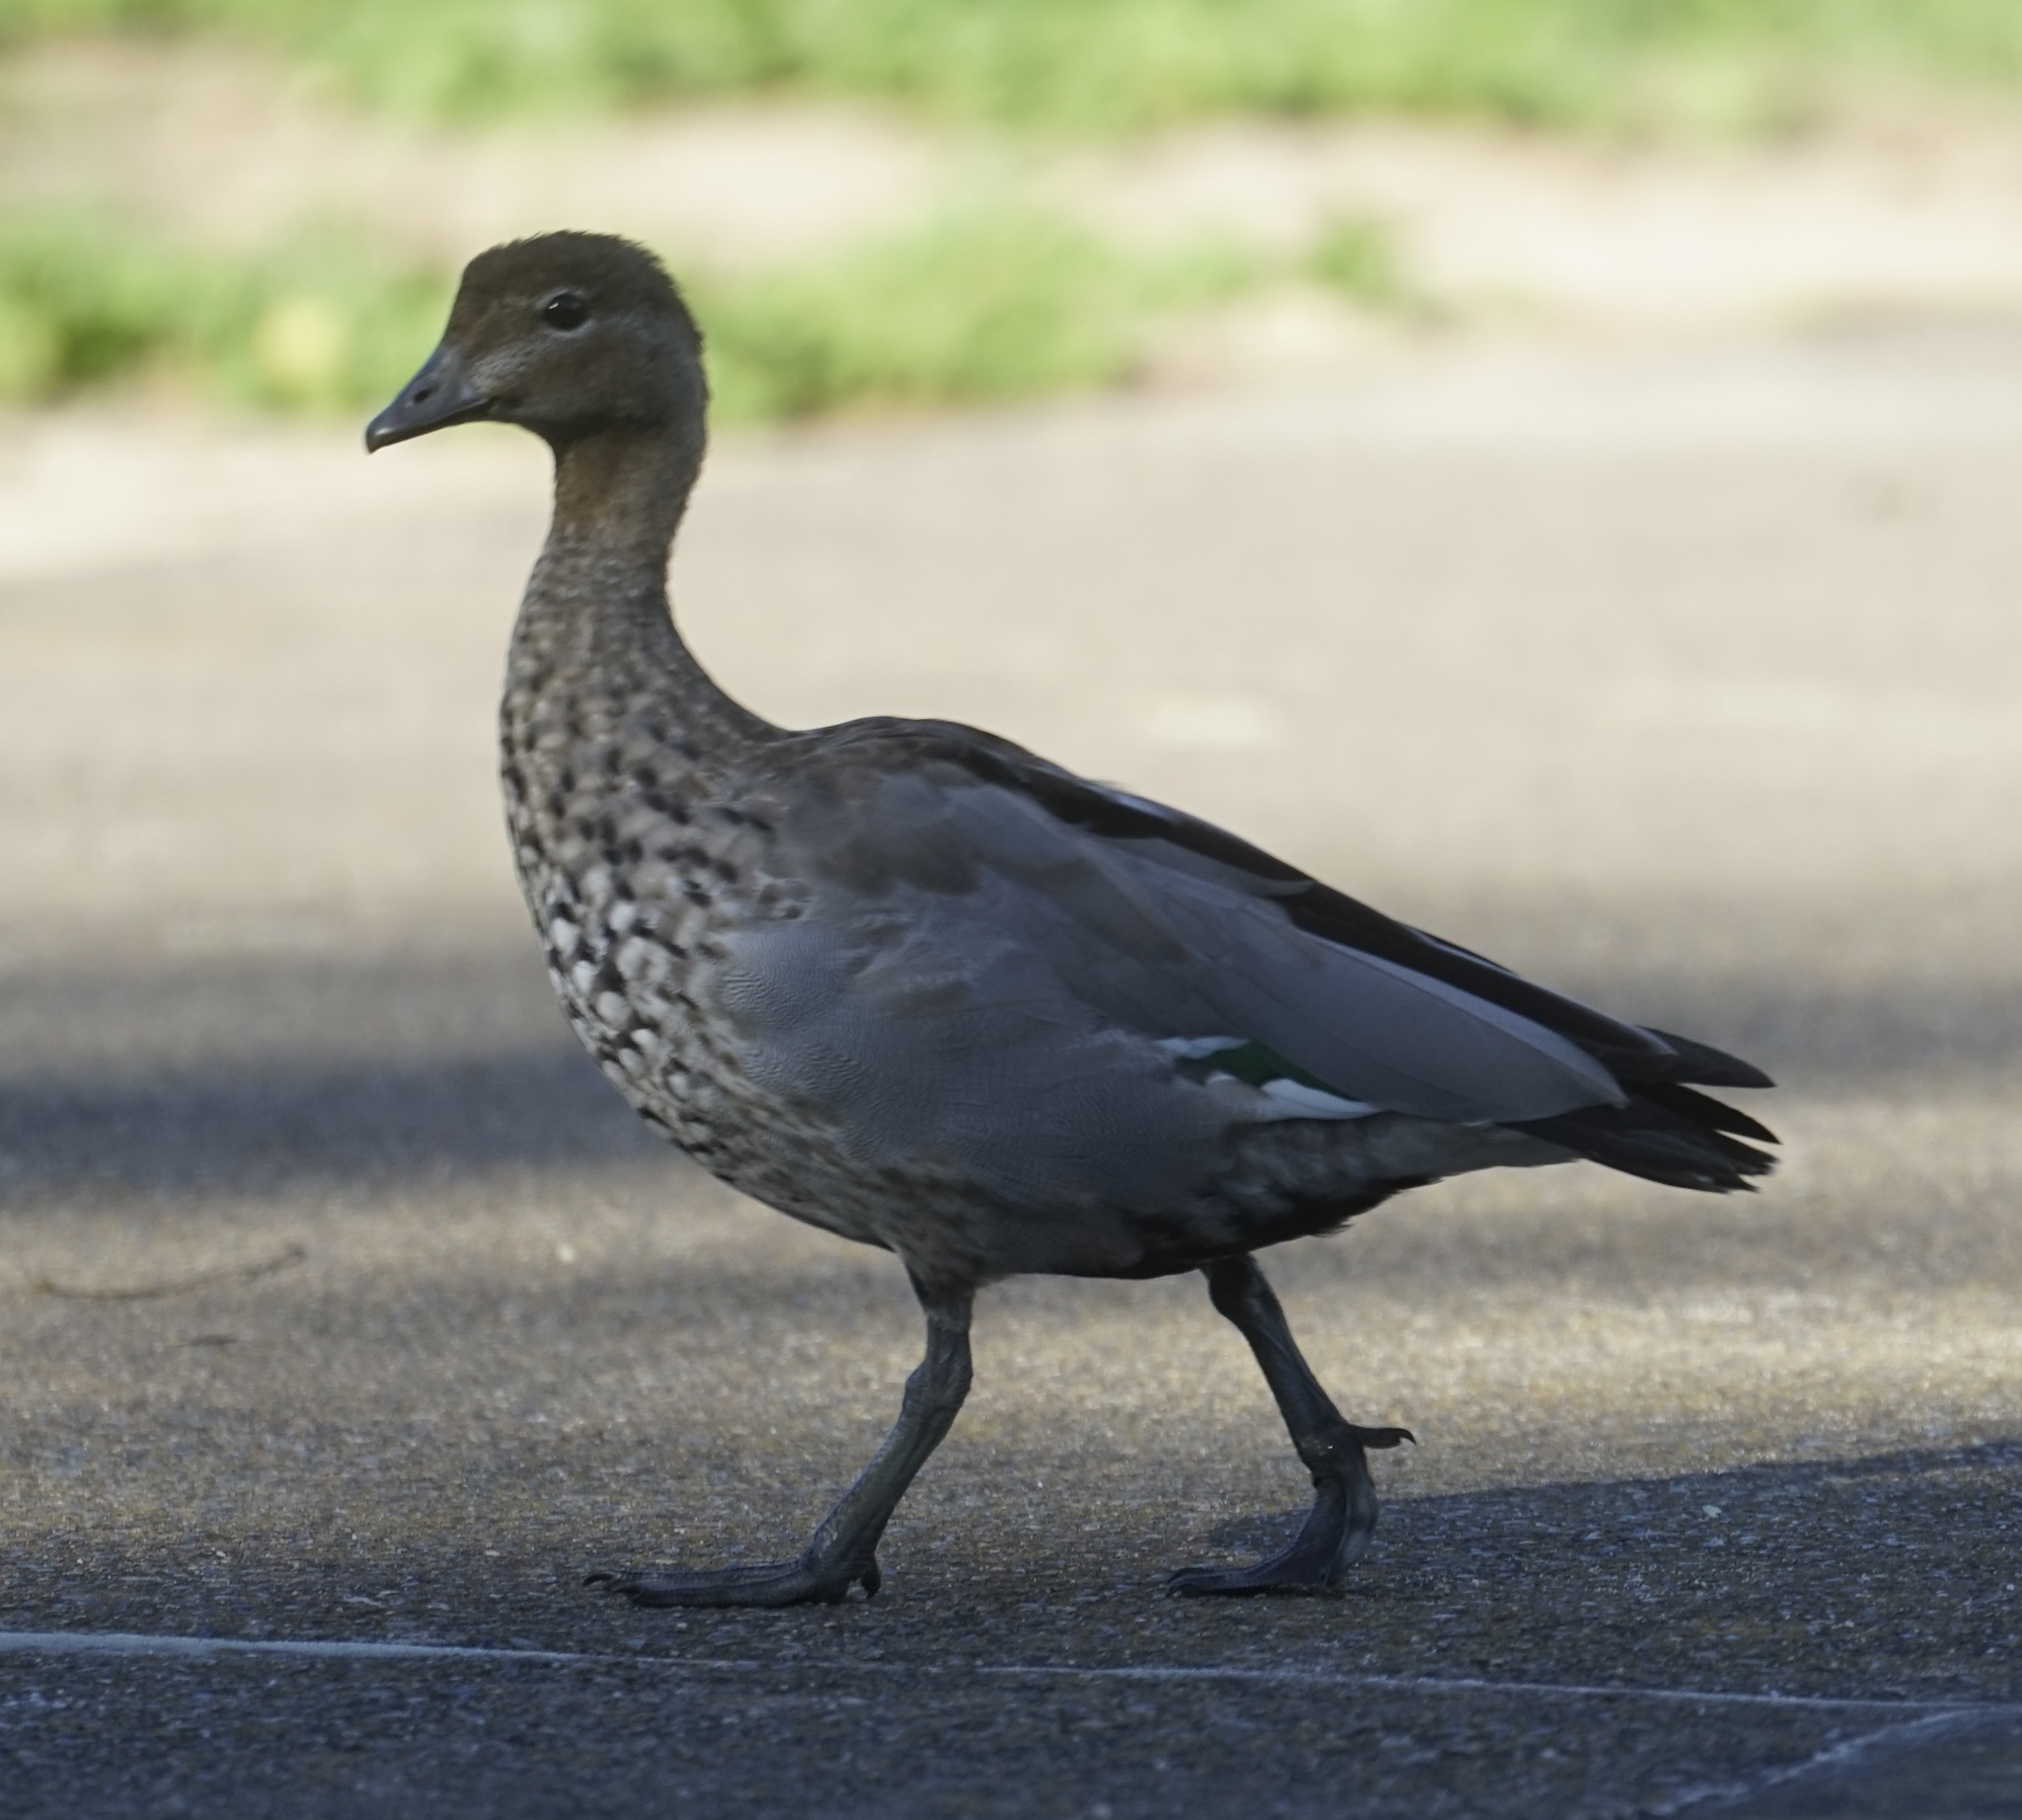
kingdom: Animalia
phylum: Chordata
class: Aves
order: Anseriformes
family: Anatidae
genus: Chenonetta
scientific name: Chenonetta jubata
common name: Maned duck
